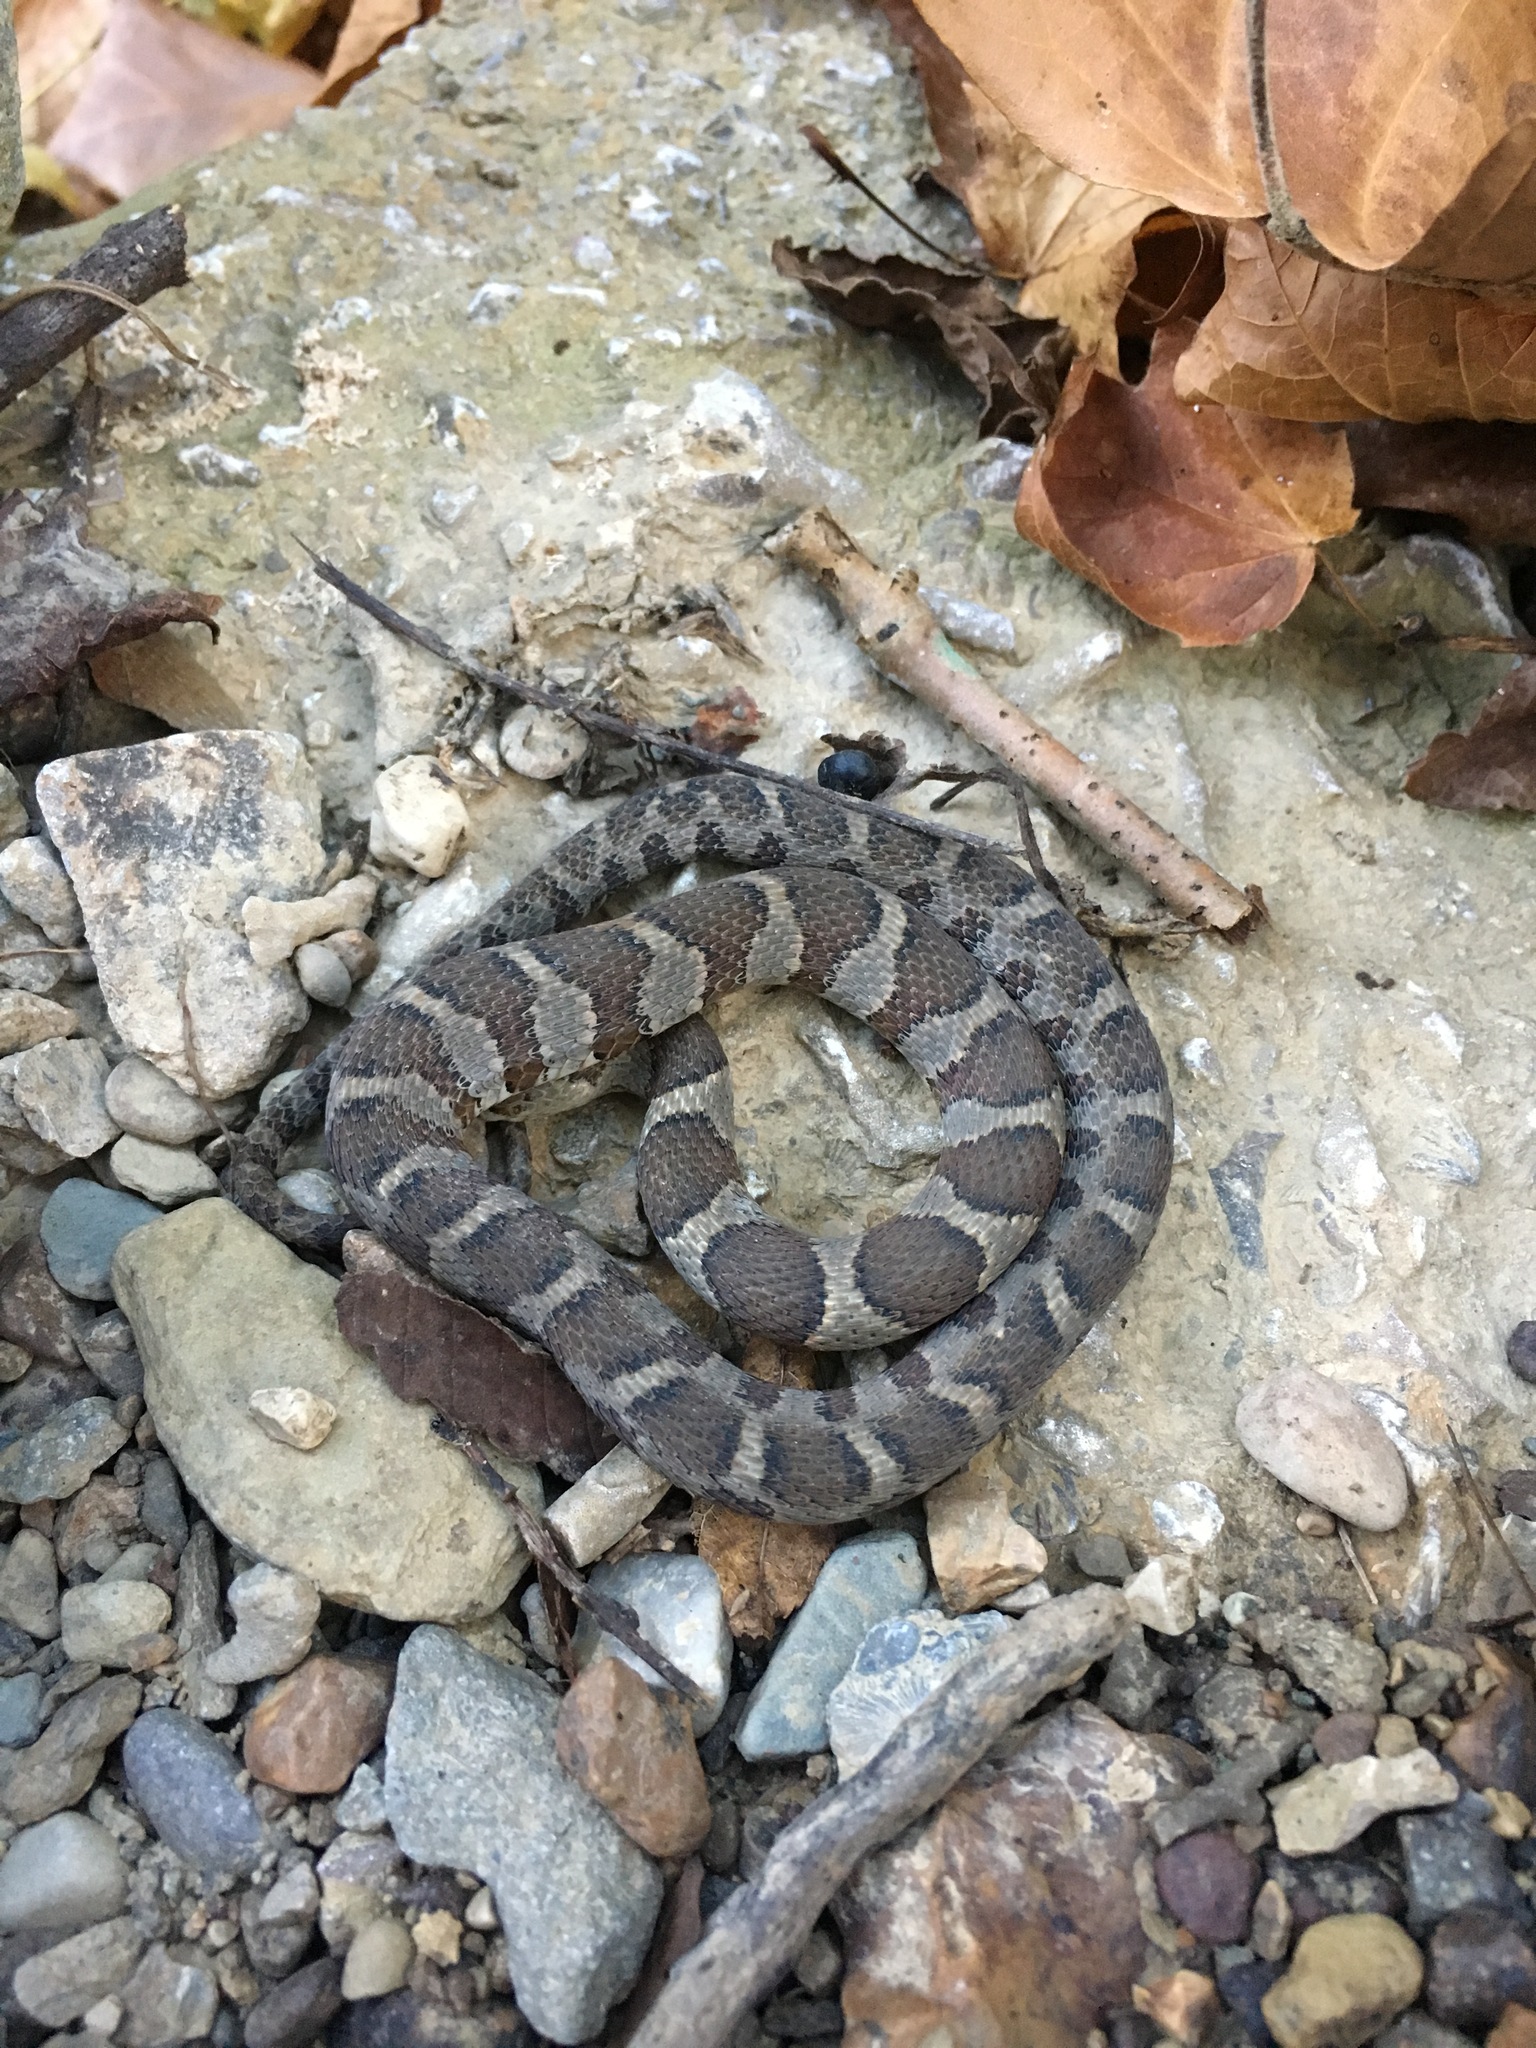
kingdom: Animalia
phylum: Chordata
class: Squamata
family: Colubridae
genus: Nerodia
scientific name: Nerodia sipedon
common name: Northern water snake
